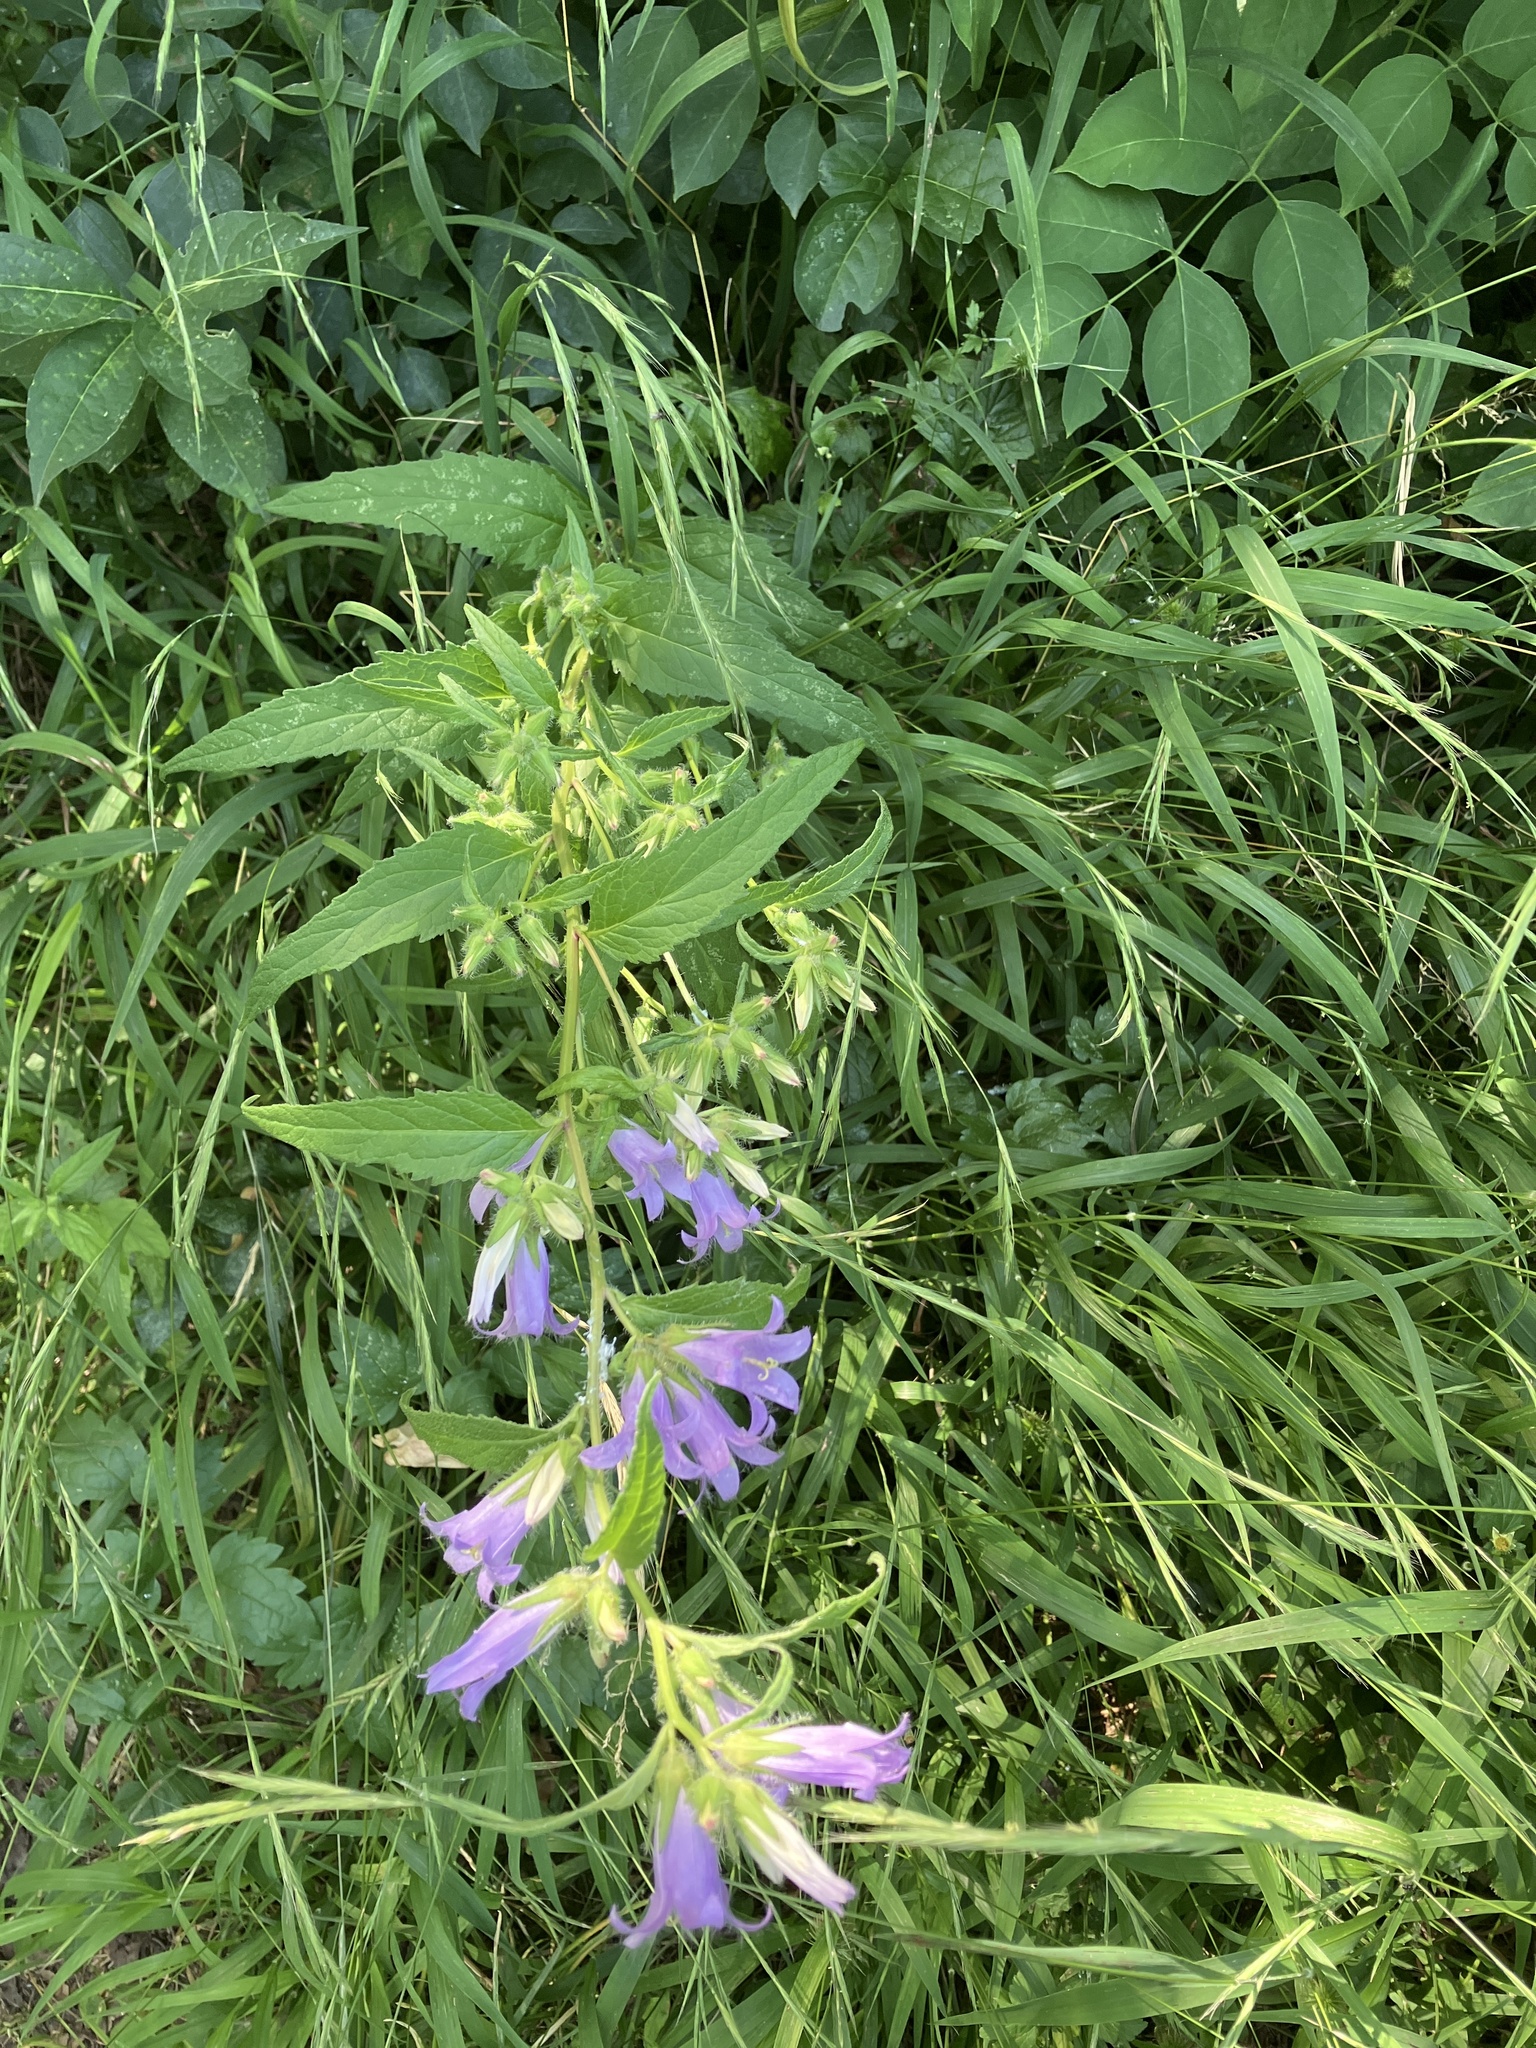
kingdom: Plantae
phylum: Tracheophyta
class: Magnoliopsida
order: Asterales
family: Campanulaceae
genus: Campanula
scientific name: Campanula trachelium
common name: Nettle-leaved bellflower
